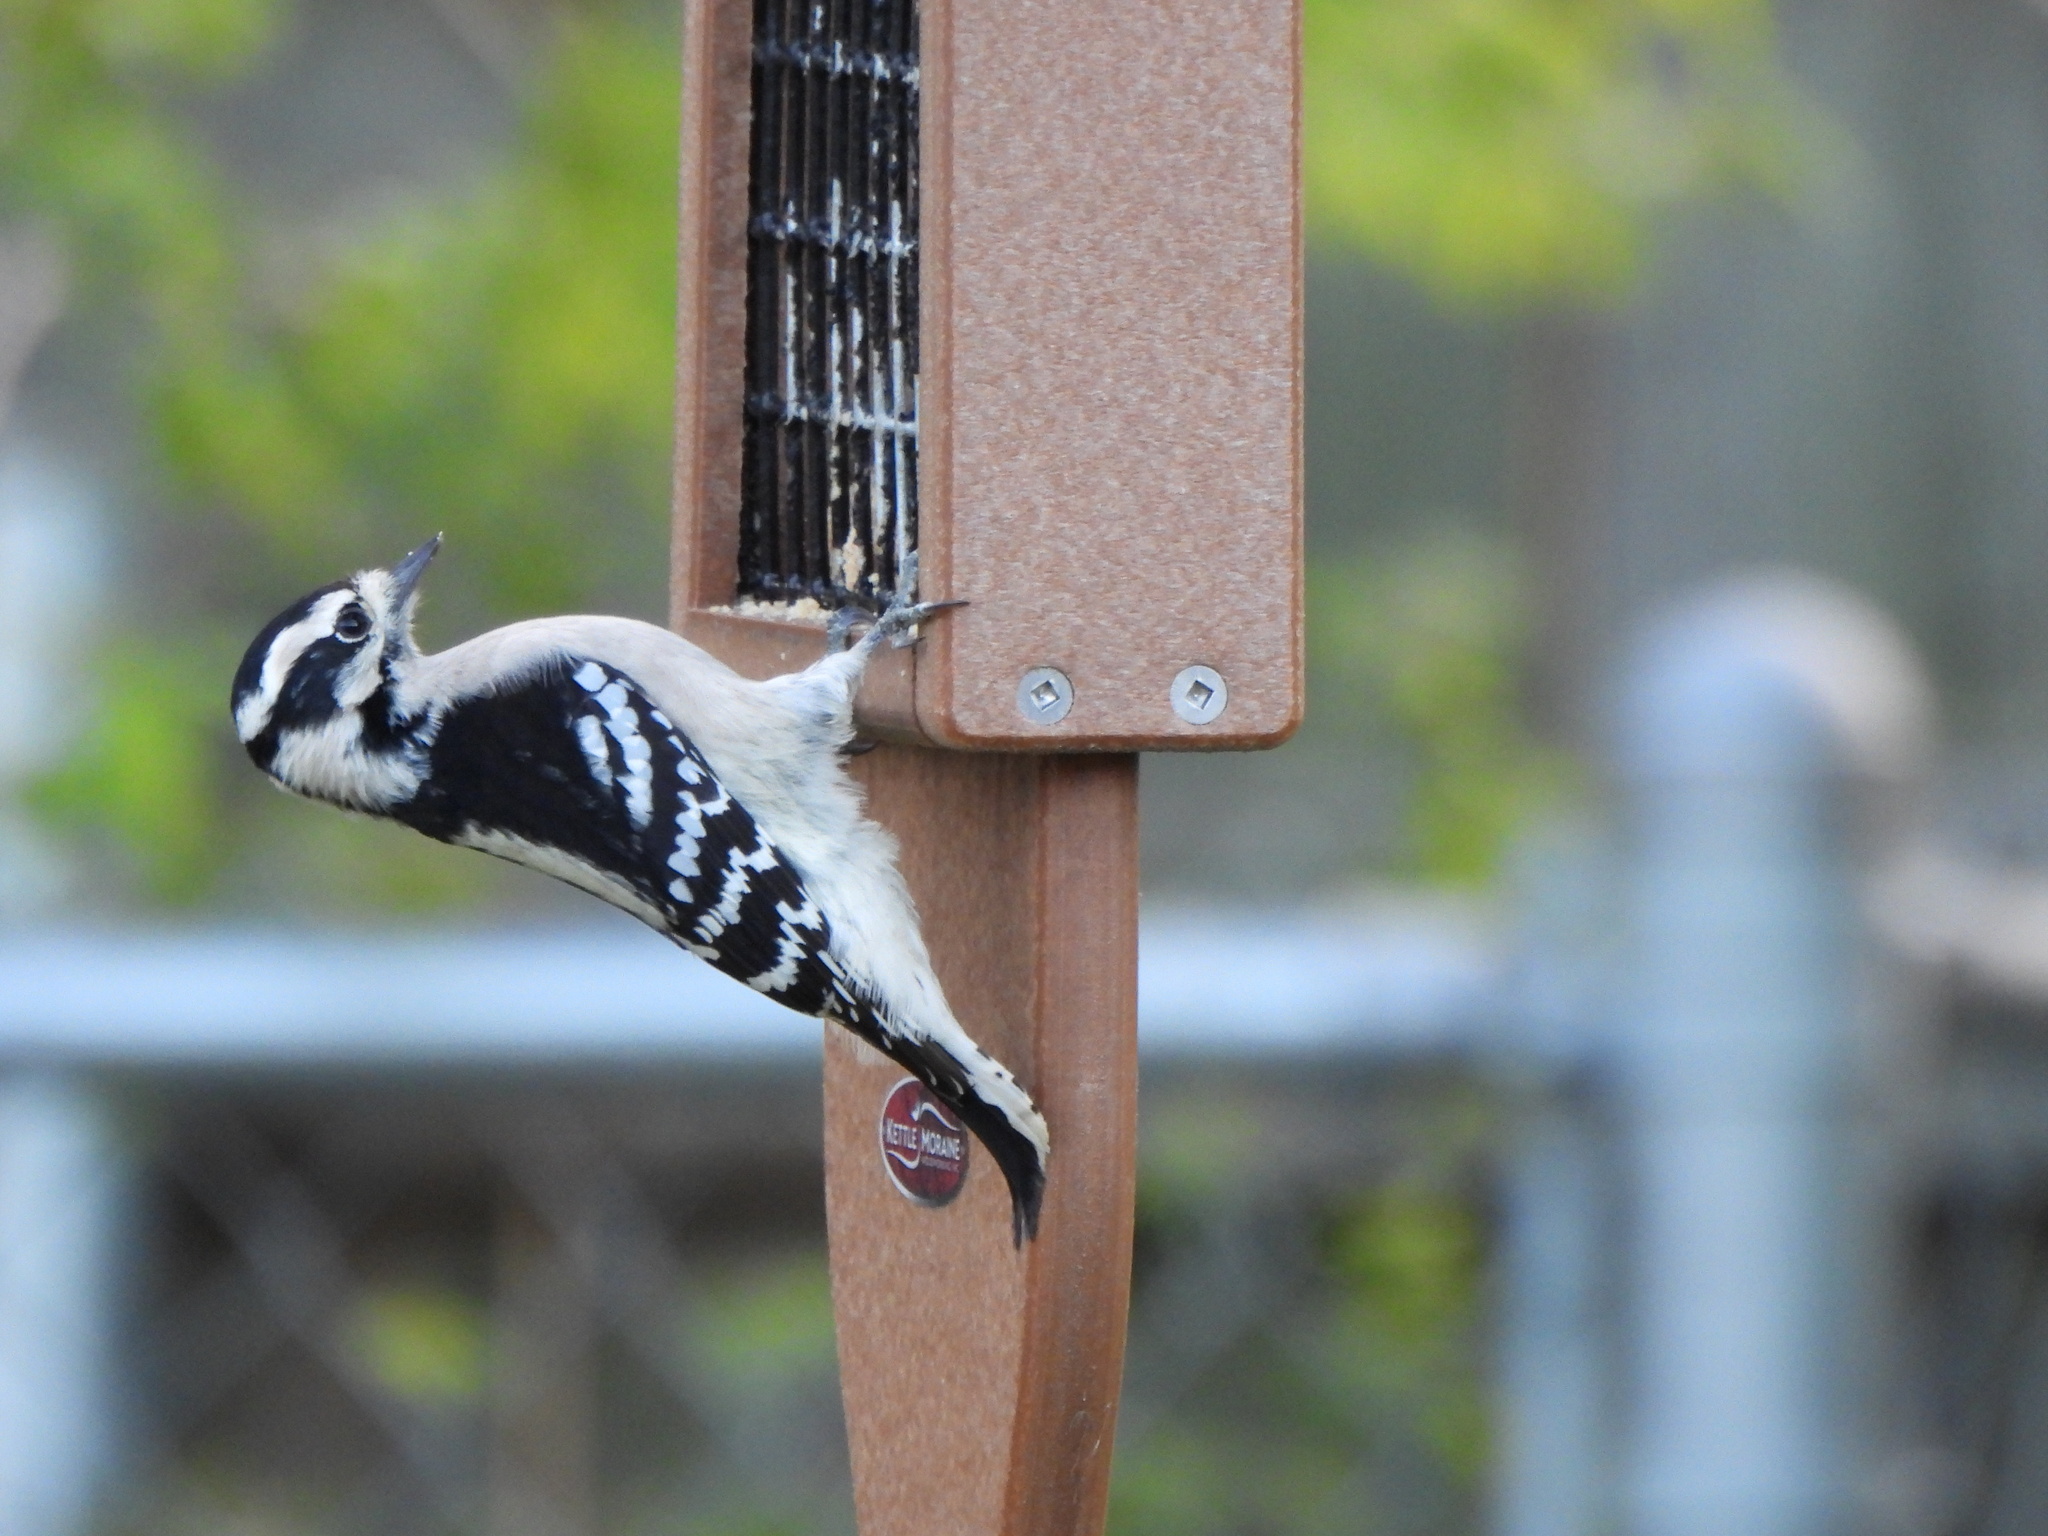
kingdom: Animalia
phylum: Chordata
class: Aves
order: Piciformes
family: Picidae
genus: Dryobates
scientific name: Dryobates pubescens
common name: Downy woodpecker
